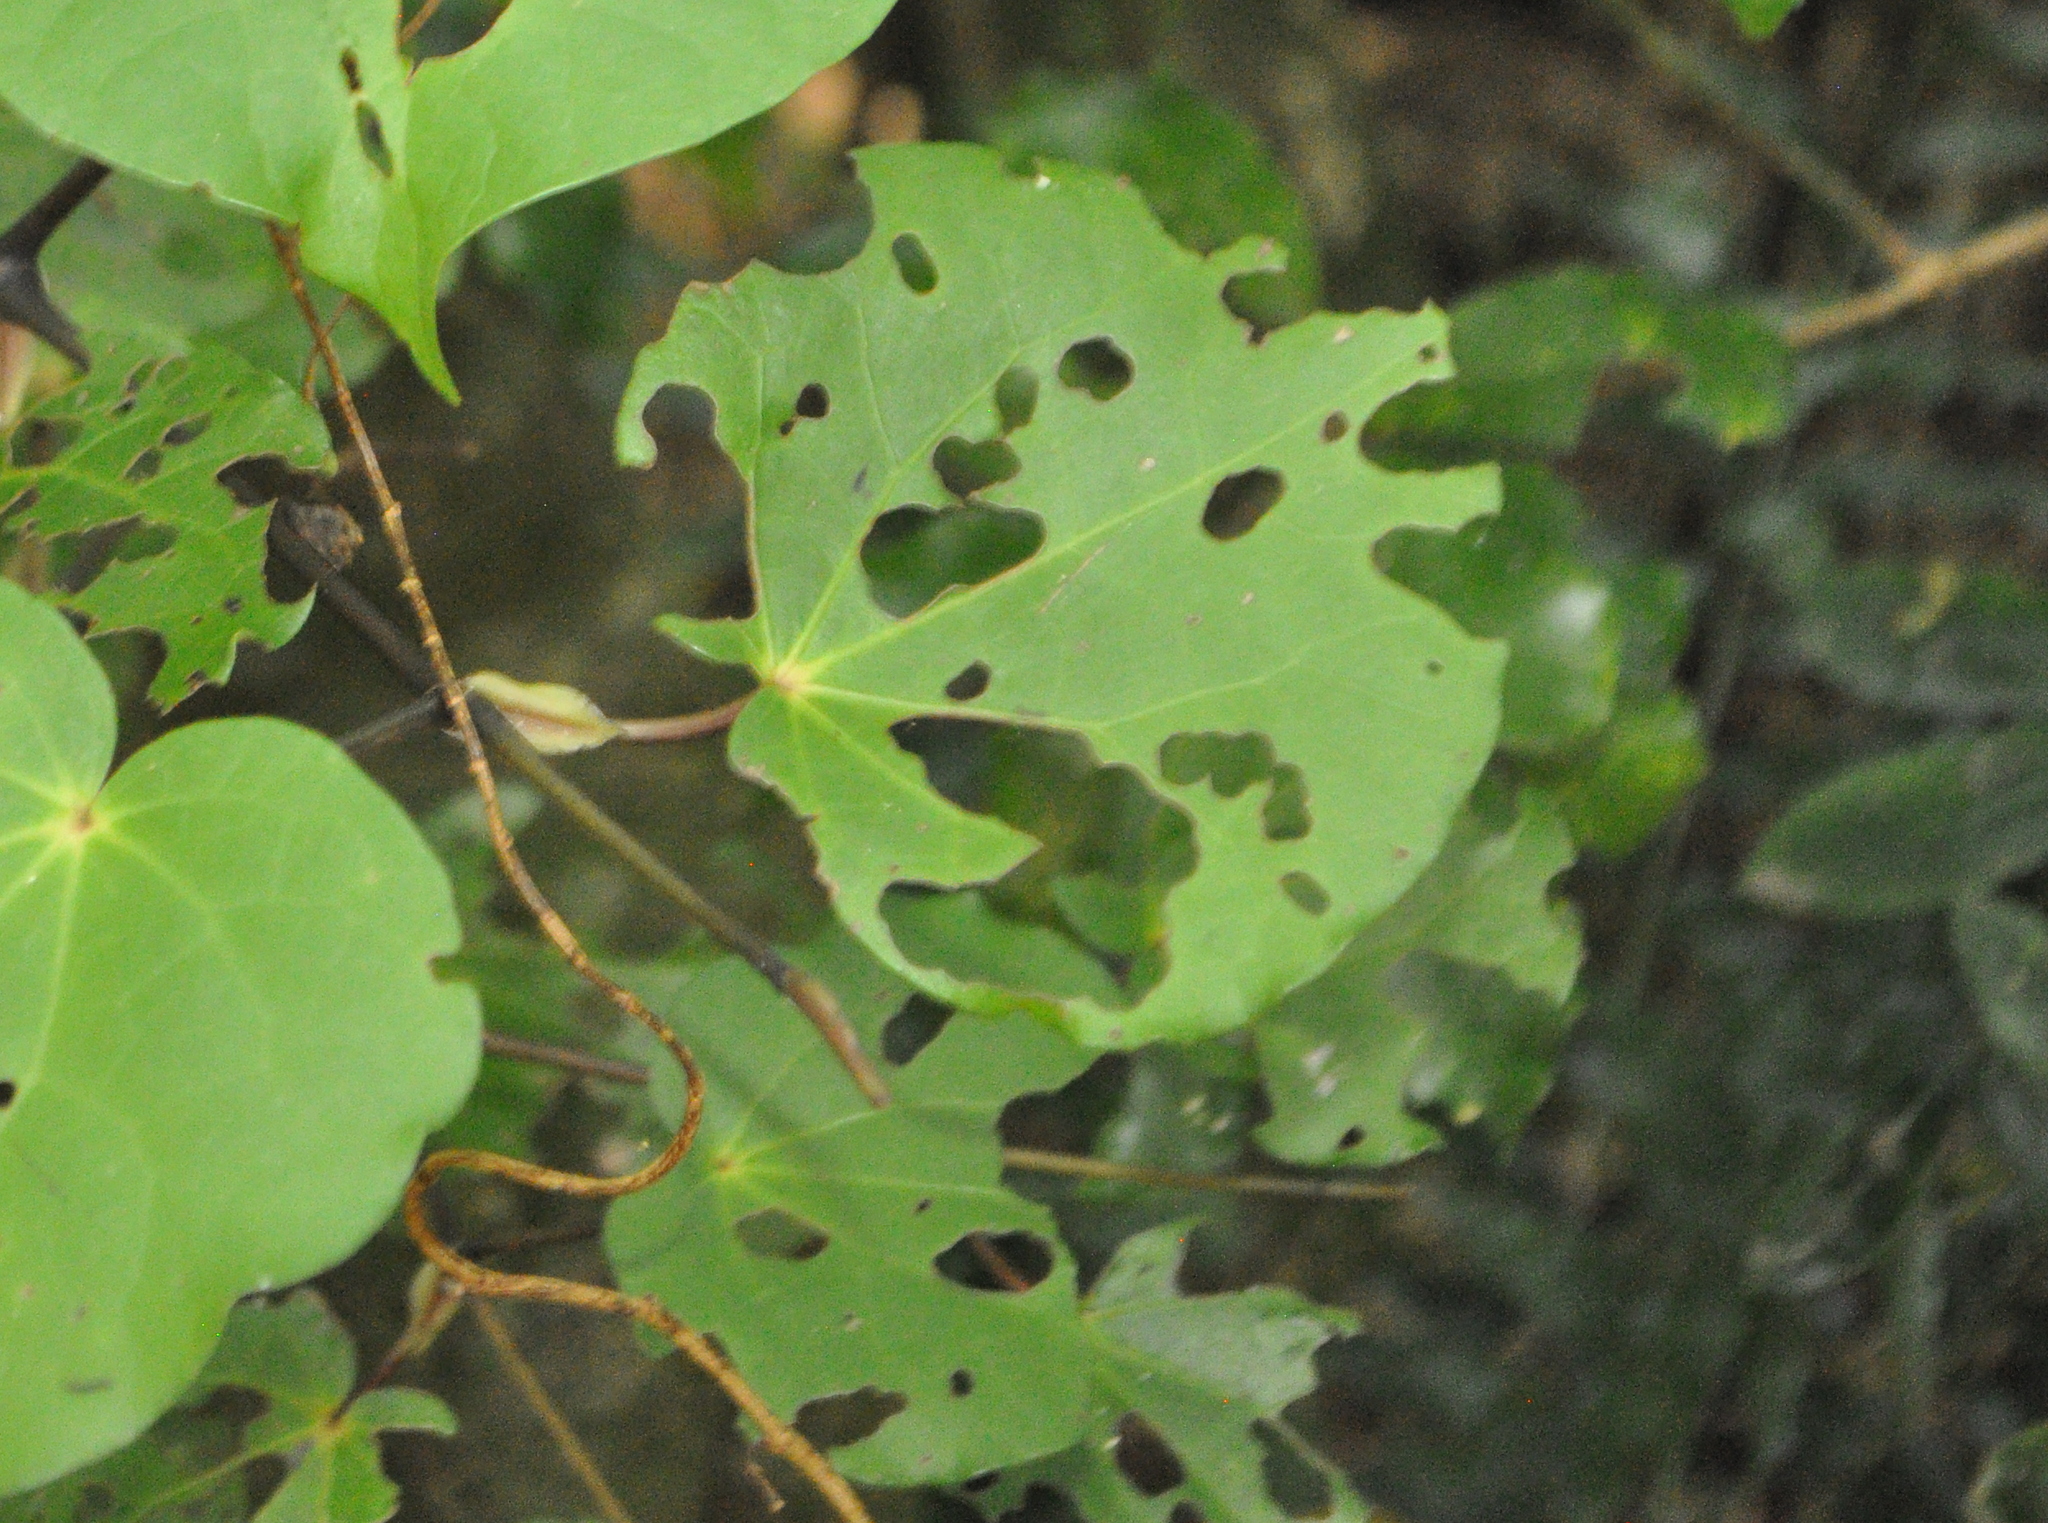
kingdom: Animalia
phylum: Arthropoda
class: Insecta
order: Lepidoptera
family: Geometridae
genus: Cleora
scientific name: Cleora scriptaria
